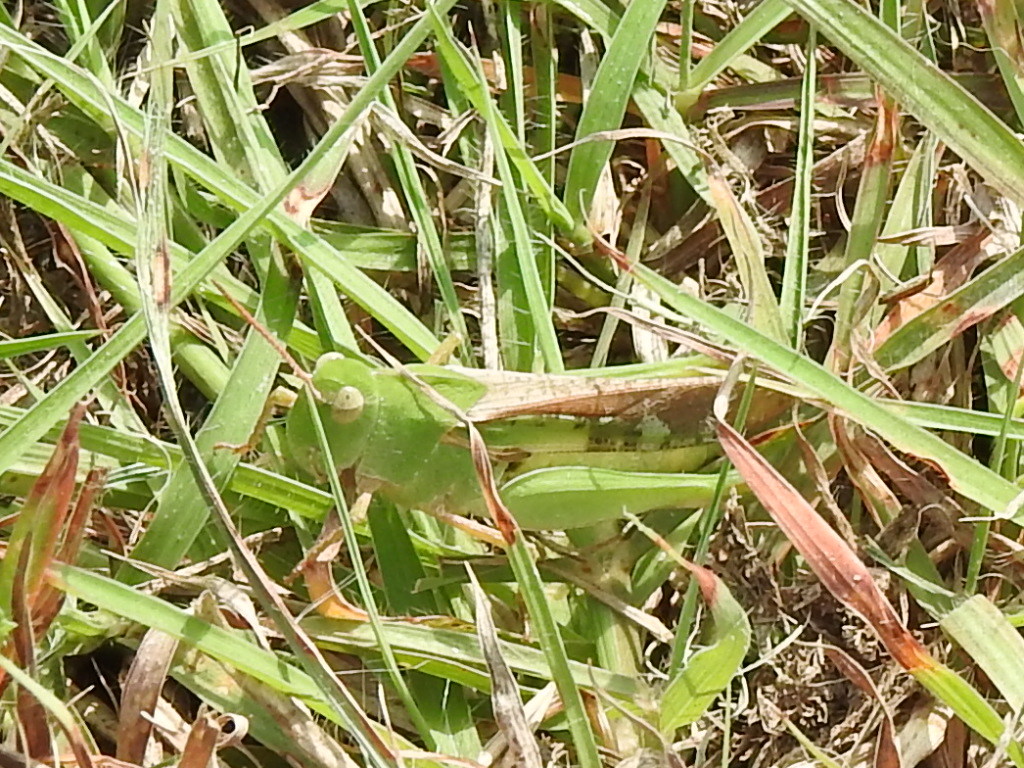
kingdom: Animalia
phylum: Arthropoda
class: Insecta
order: Orthoptera
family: Acrididae
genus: Chortophaga
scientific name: Chortophaga viridifasciata
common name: Green-striped grasshopper
